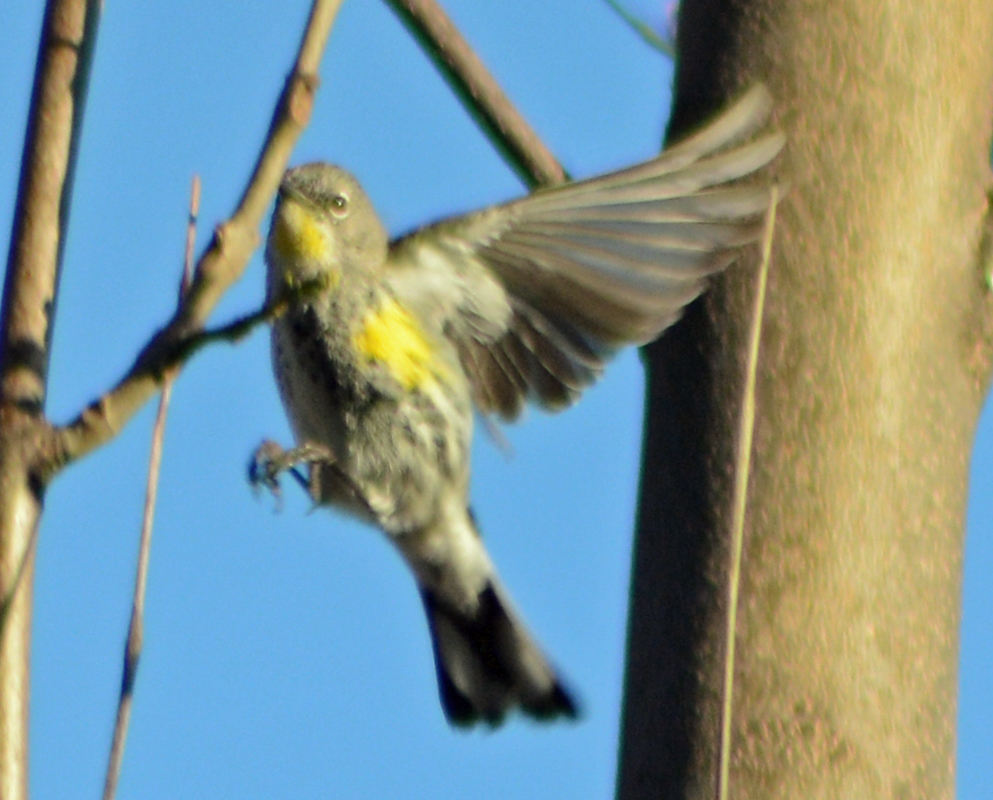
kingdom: Animalia
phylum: Chordata
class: Aves
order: Passeriformes
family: Parulidae
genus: Setophaga
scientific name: Setophaga coronata
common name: Myrtle warbler
